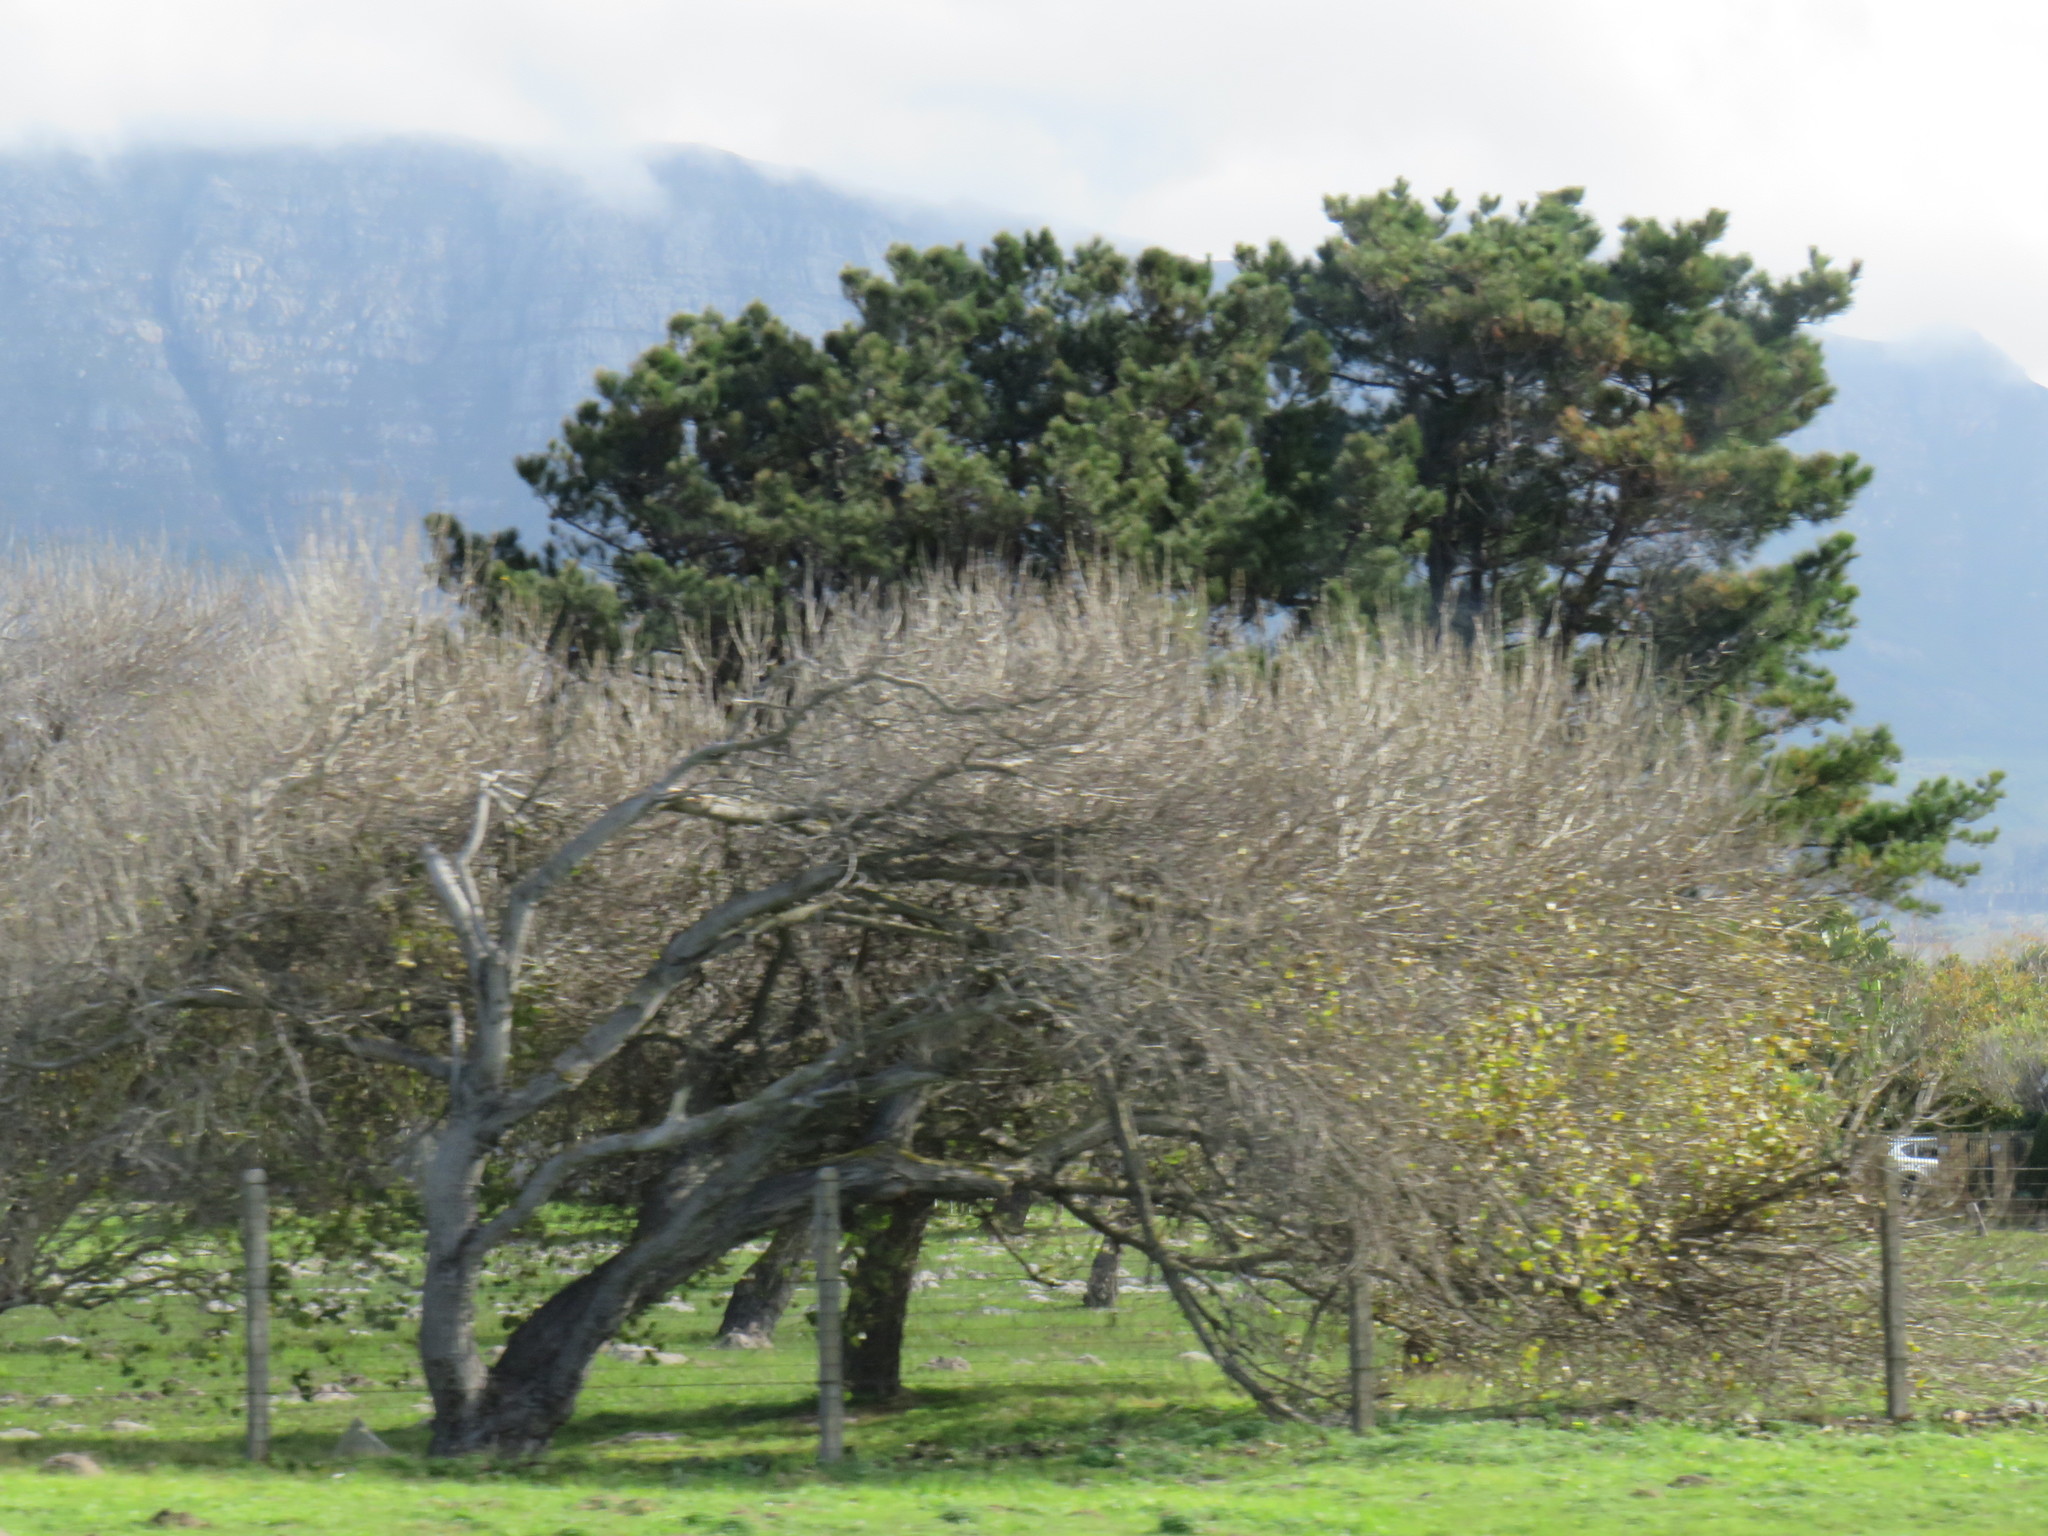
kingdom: Plantae
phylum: Tracheophyta
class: Pinopsida
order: Pinales
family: Pinaceae
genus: Pinus
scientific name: Pinus radiata
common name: Monterey pine
